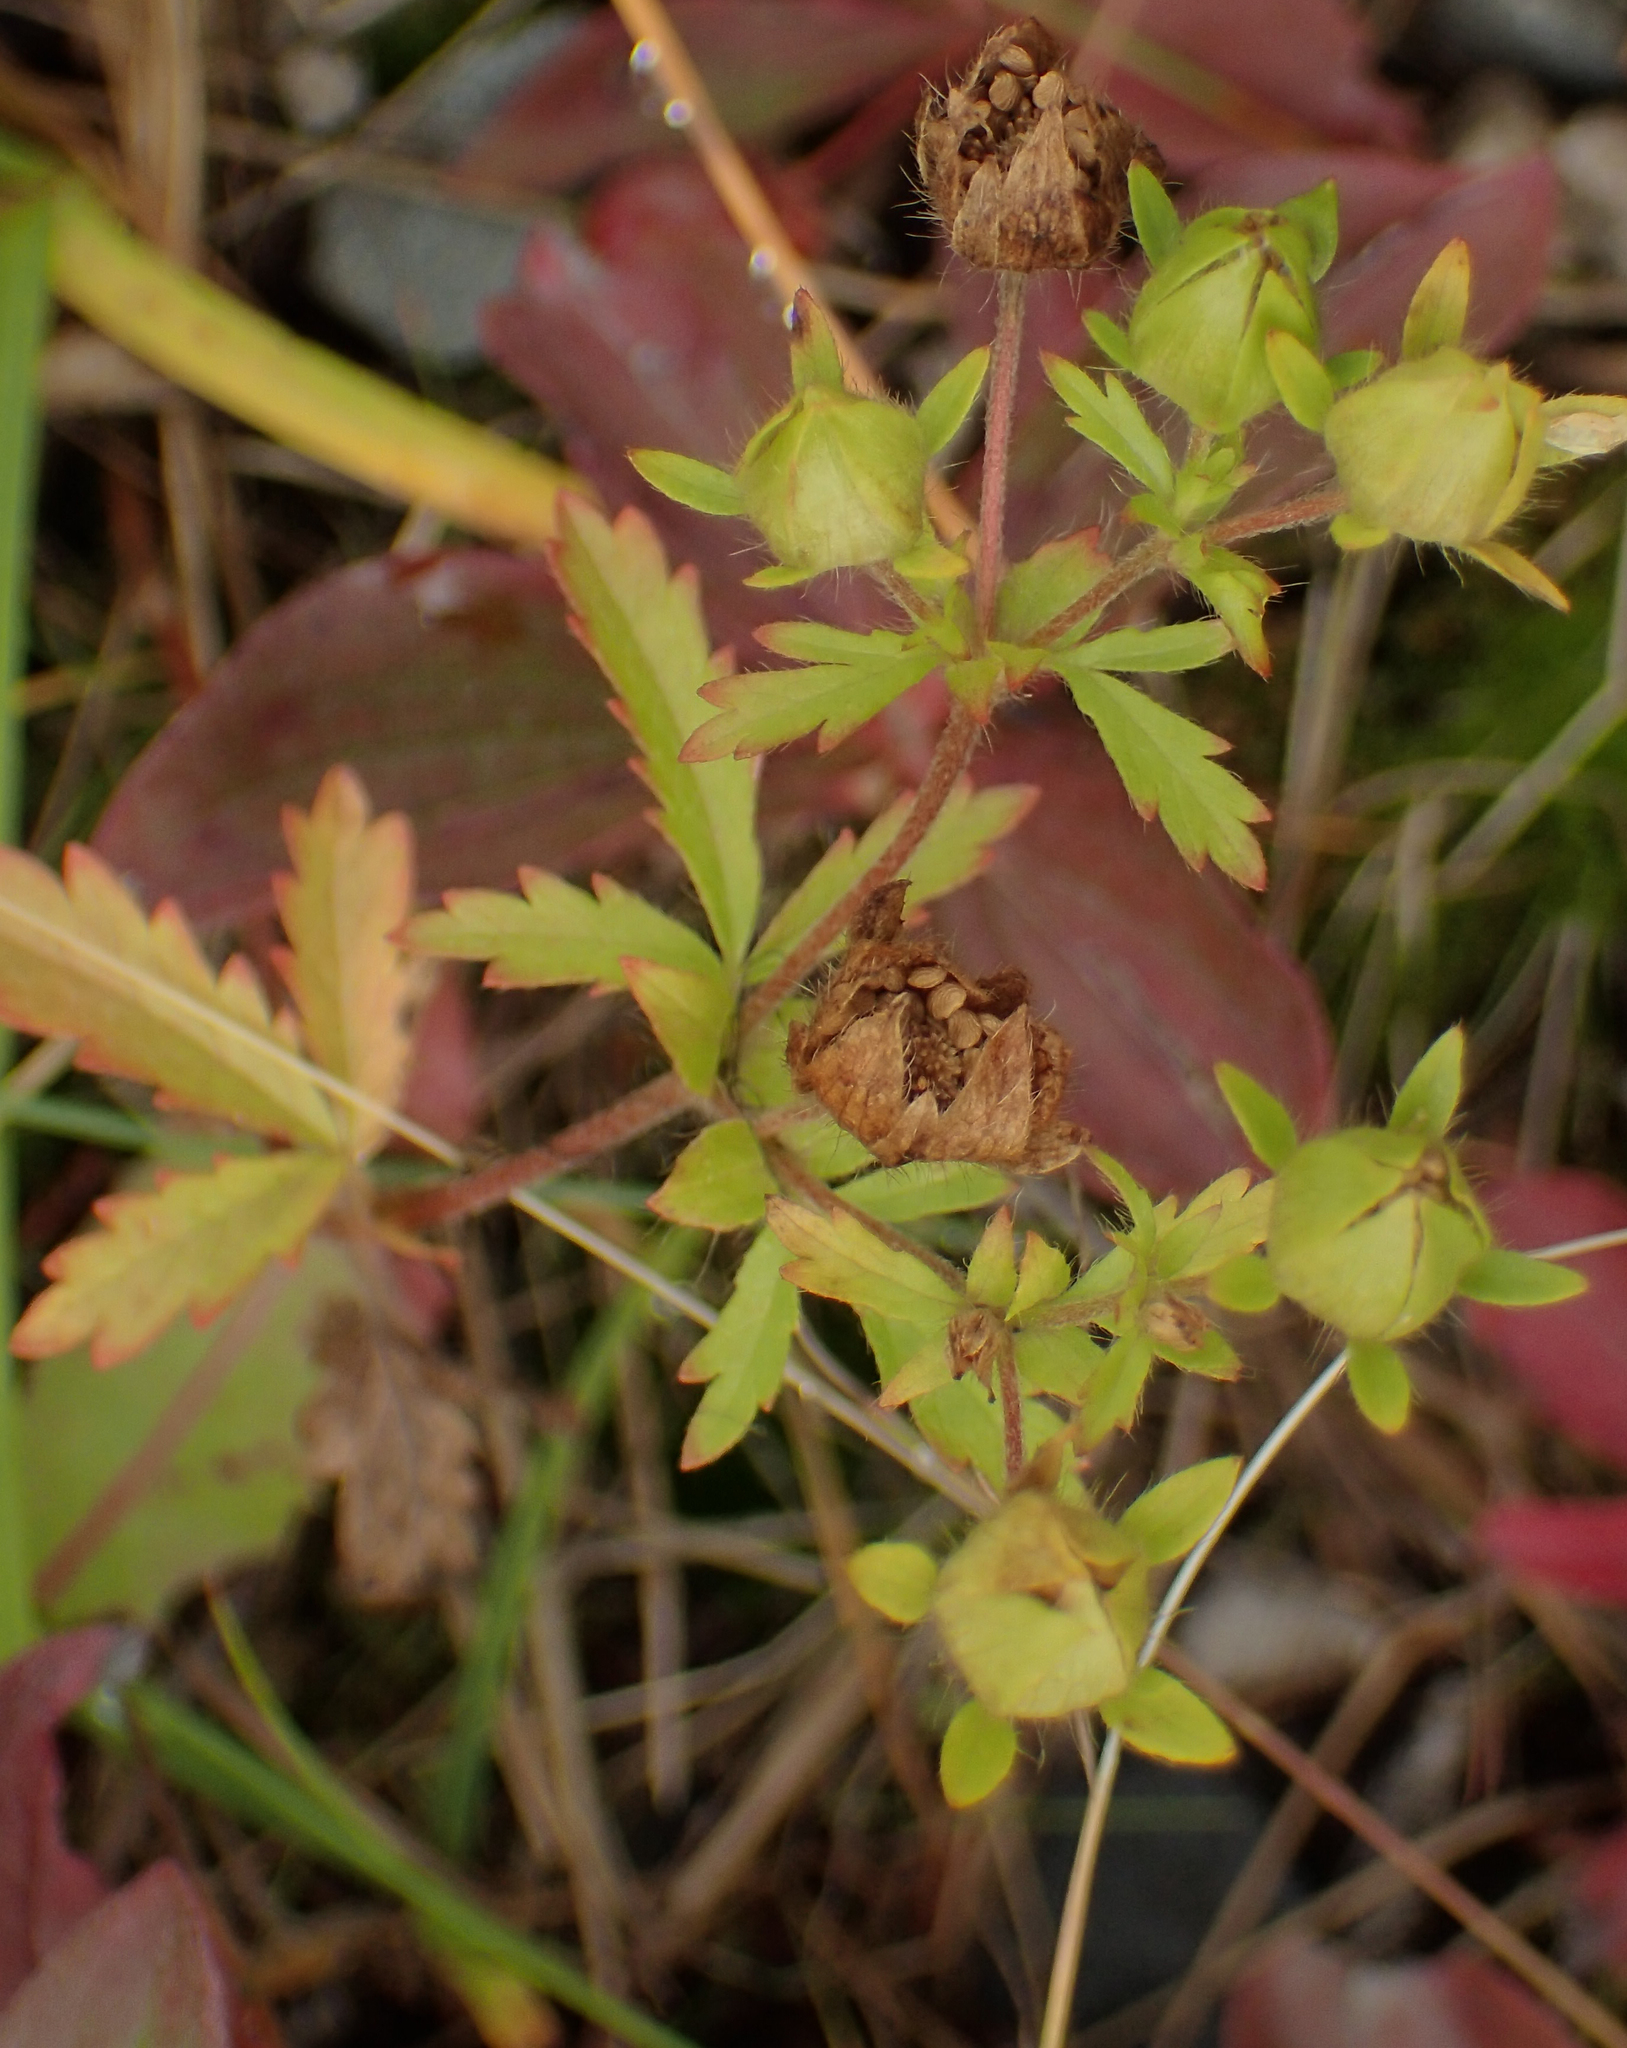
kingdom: Plantae
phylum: Tracheophyta
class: Magnoliopsida
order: Rosales
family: Rosaceae
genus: Potentilla
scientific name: Potentilla norvegica
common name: Ternate-leaved cinquefoil
